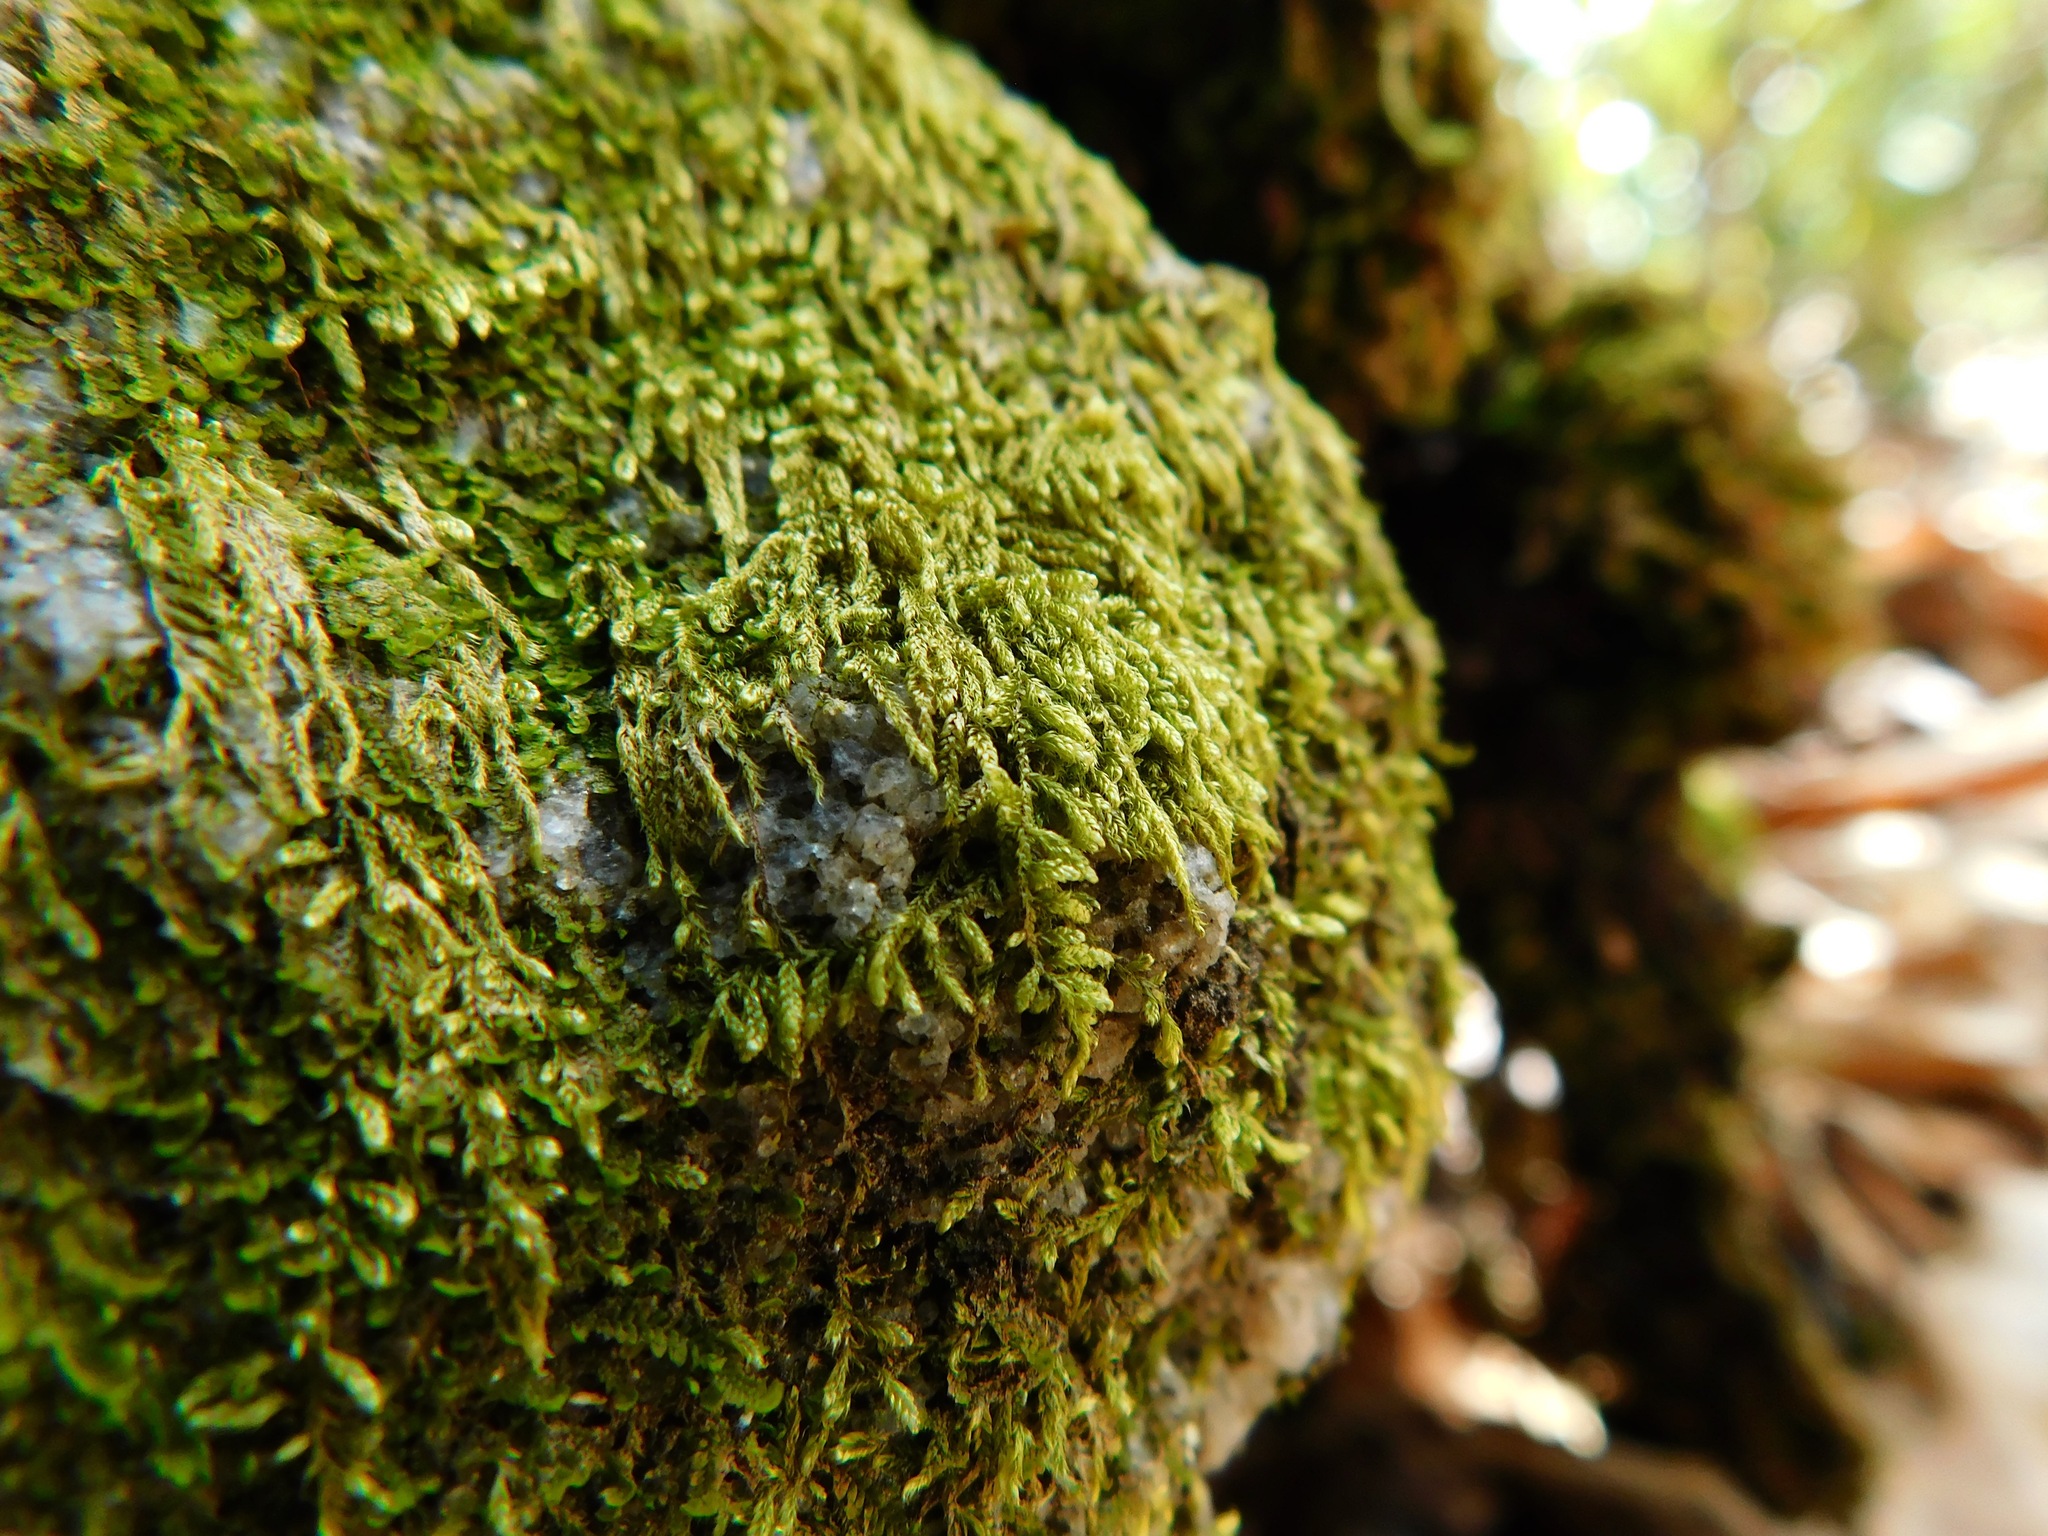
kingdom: Plantae
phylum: Bryophyta
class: Bryopsida
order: Hypnales
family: Jocheniaceae
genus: Jochenia
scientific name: Jochenia pallescens
